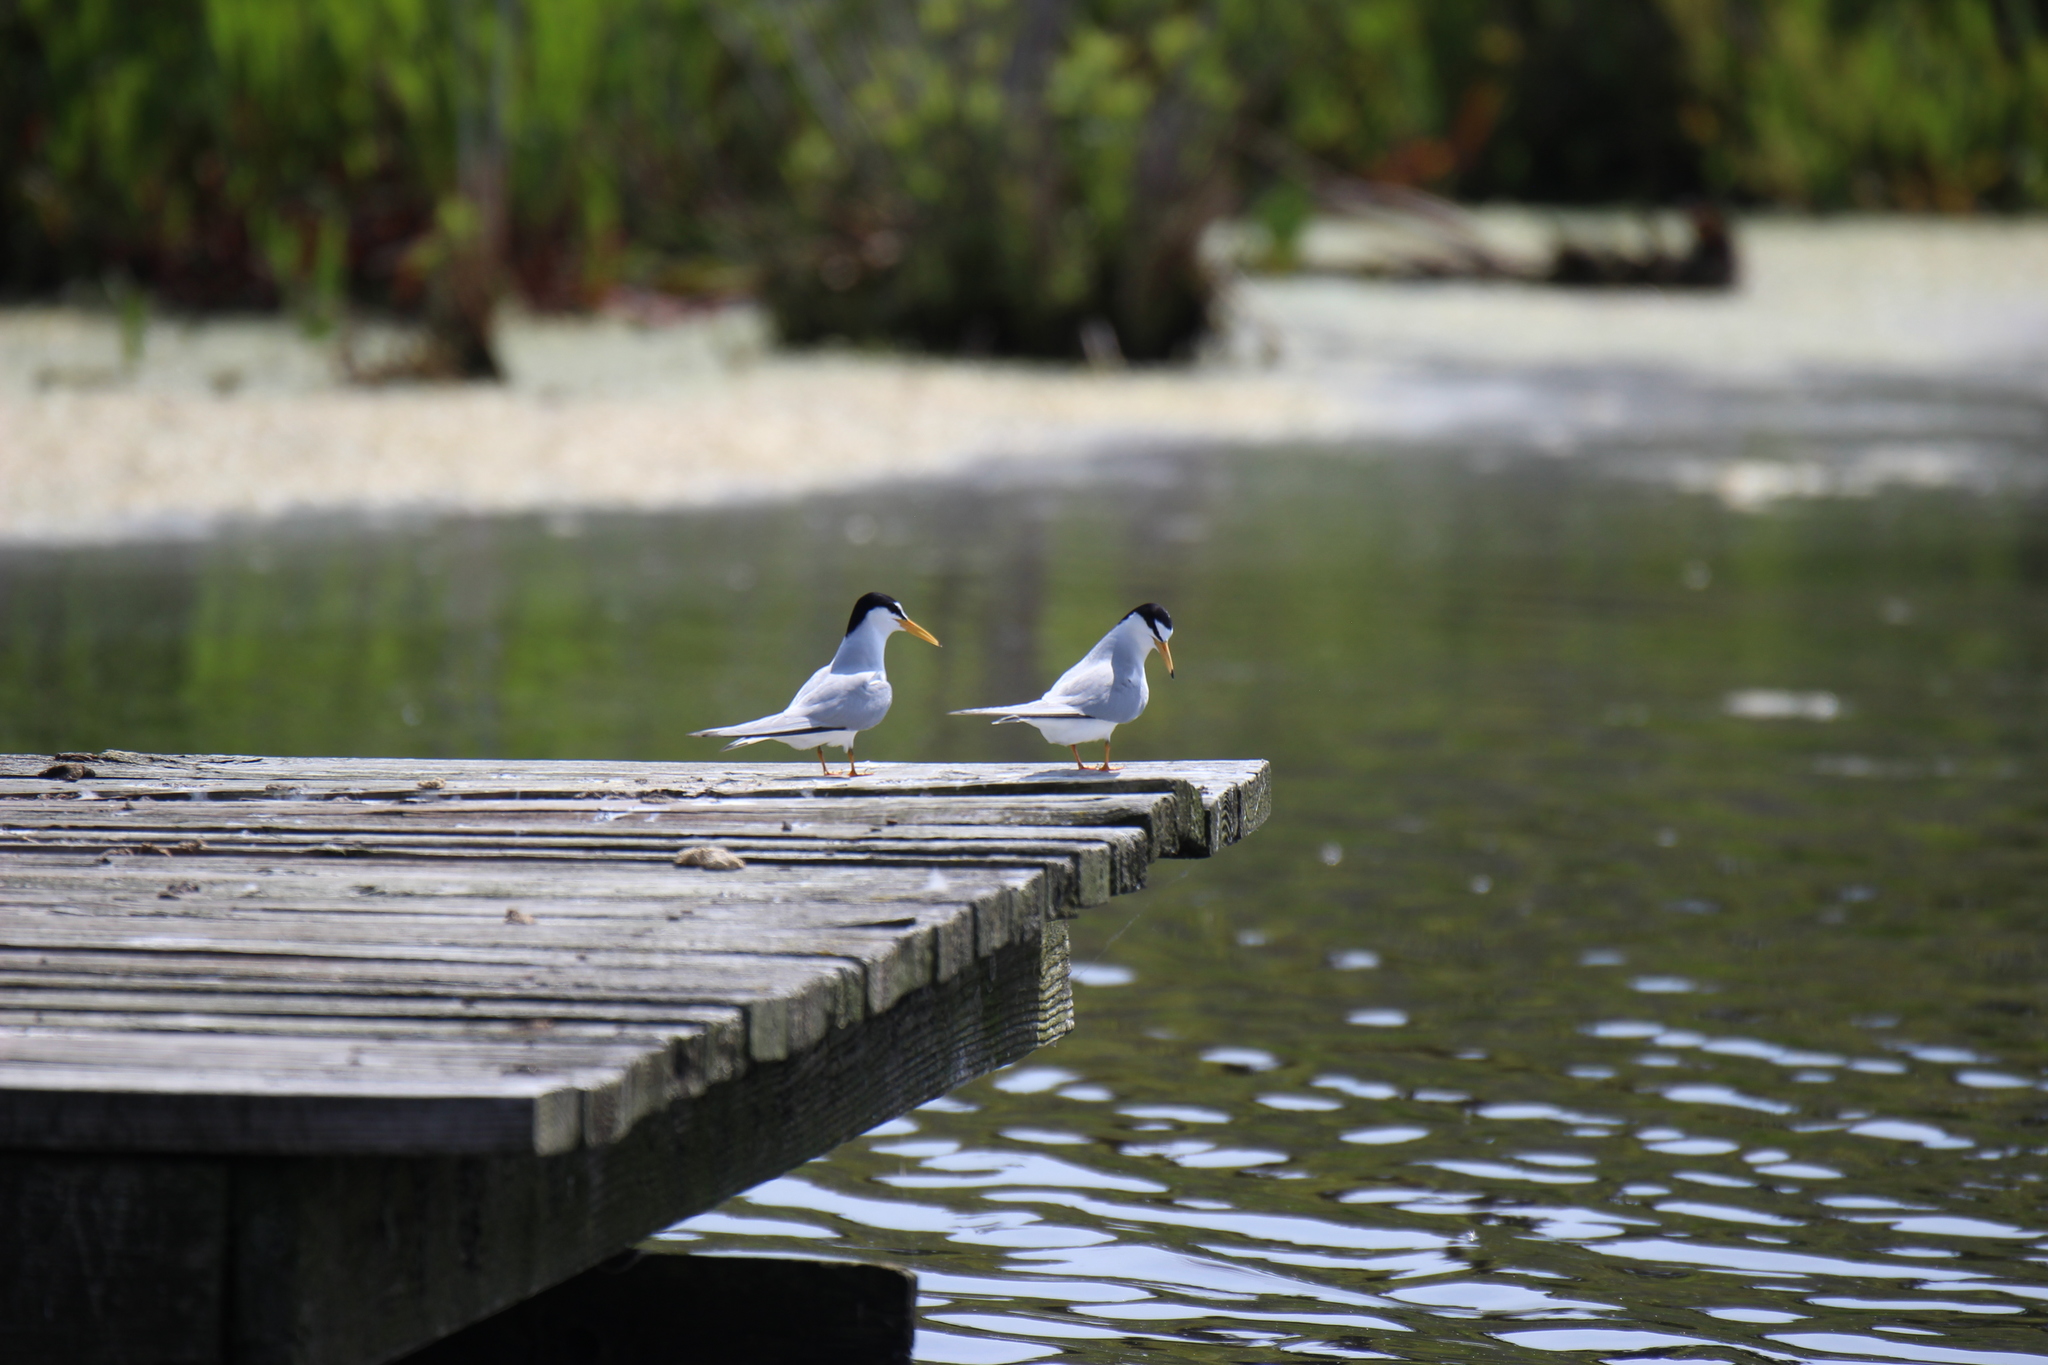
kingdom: Animalia
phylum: Chordata
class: Aves
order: Charadriiformes
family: Laridae
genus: Sternula
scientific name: Sternula antillarum
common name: Least tern
